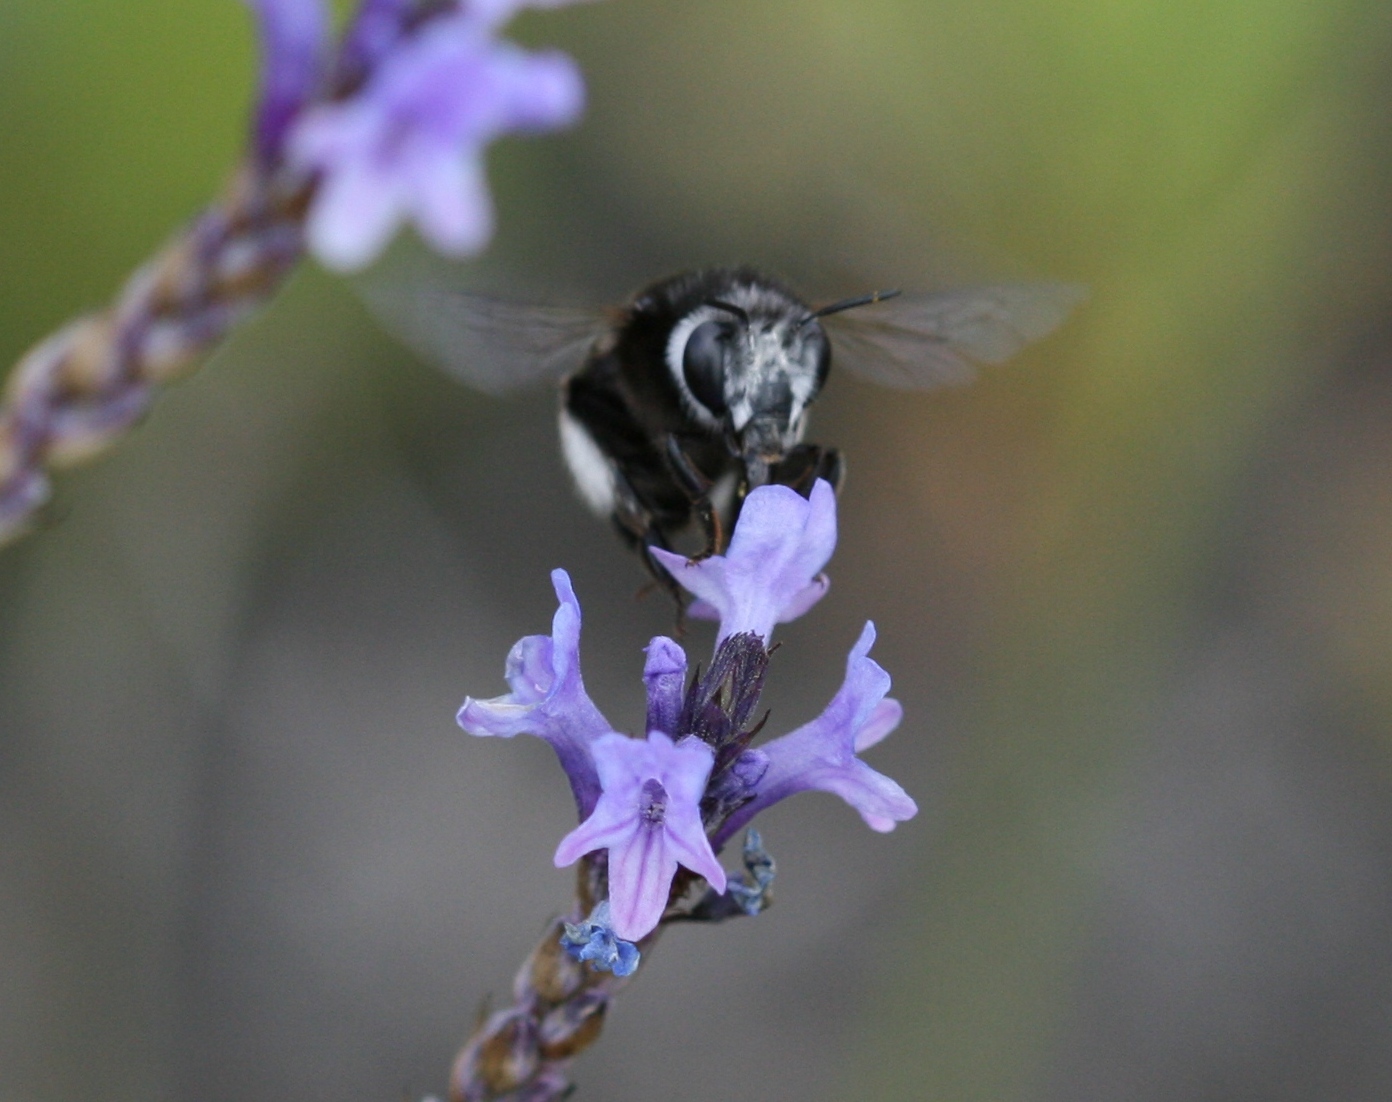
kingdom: Animalia
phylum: Arthropoda
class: Insecta
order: Hymenoptera
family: Apidae
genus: Anthophora
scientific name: Anthophora alluaudi
